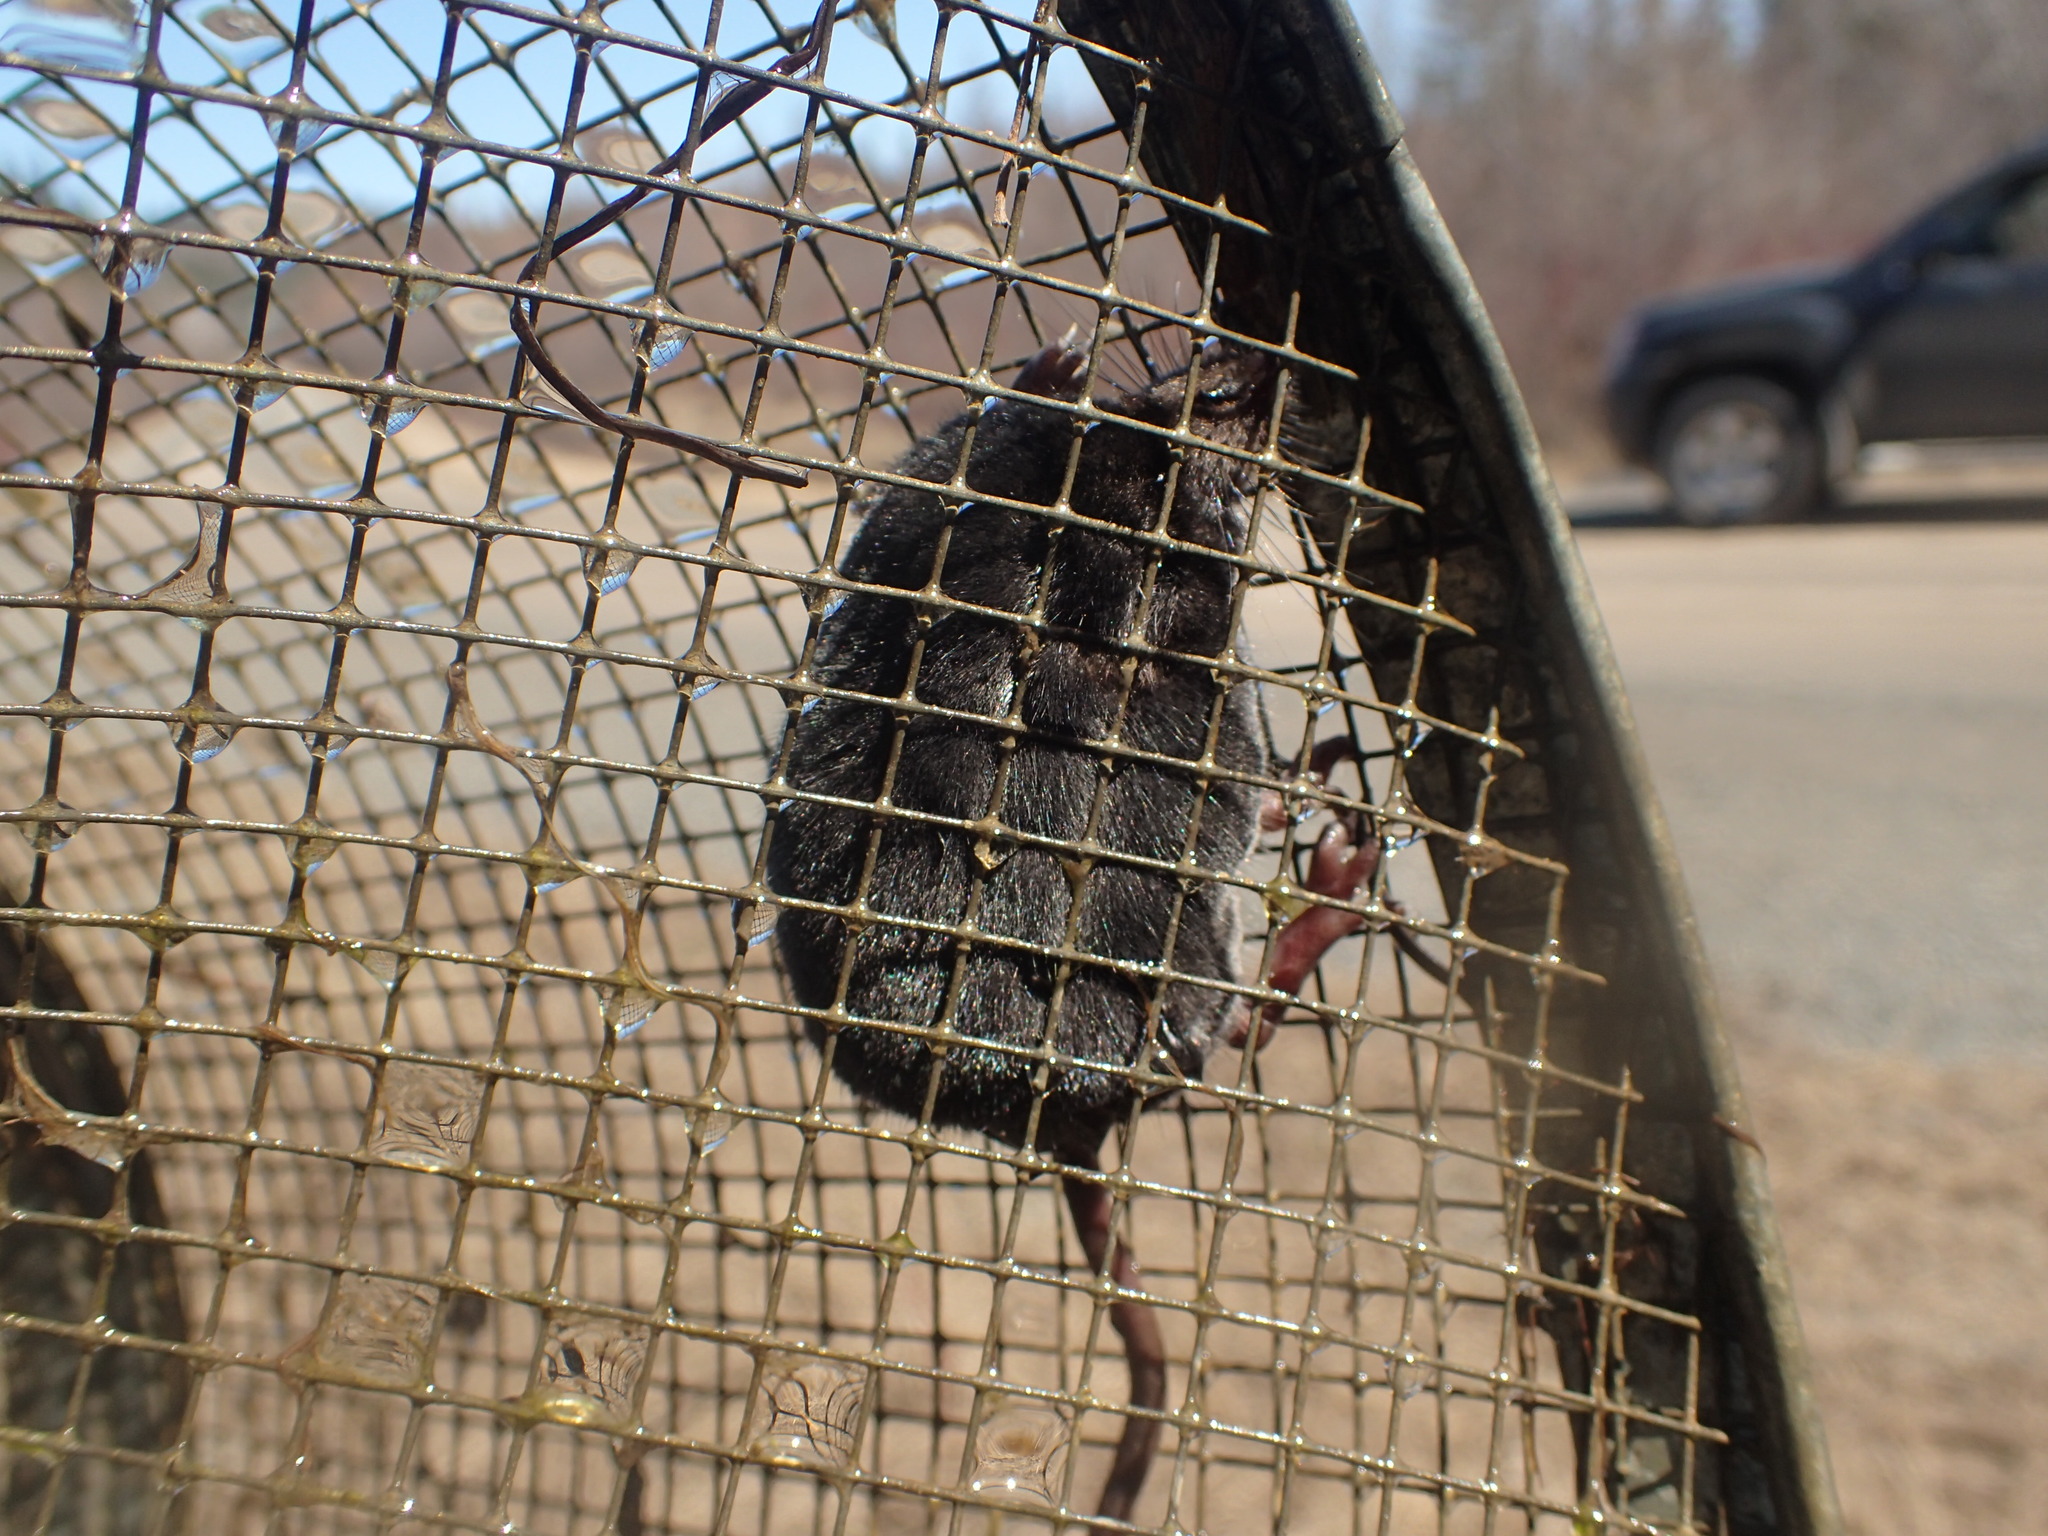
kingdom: Animalia
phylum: Chordata
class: Mammalia
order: Soricomorpha
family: Soricidae
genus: Sorex
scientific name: Sorex palustris
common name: American water shrew
